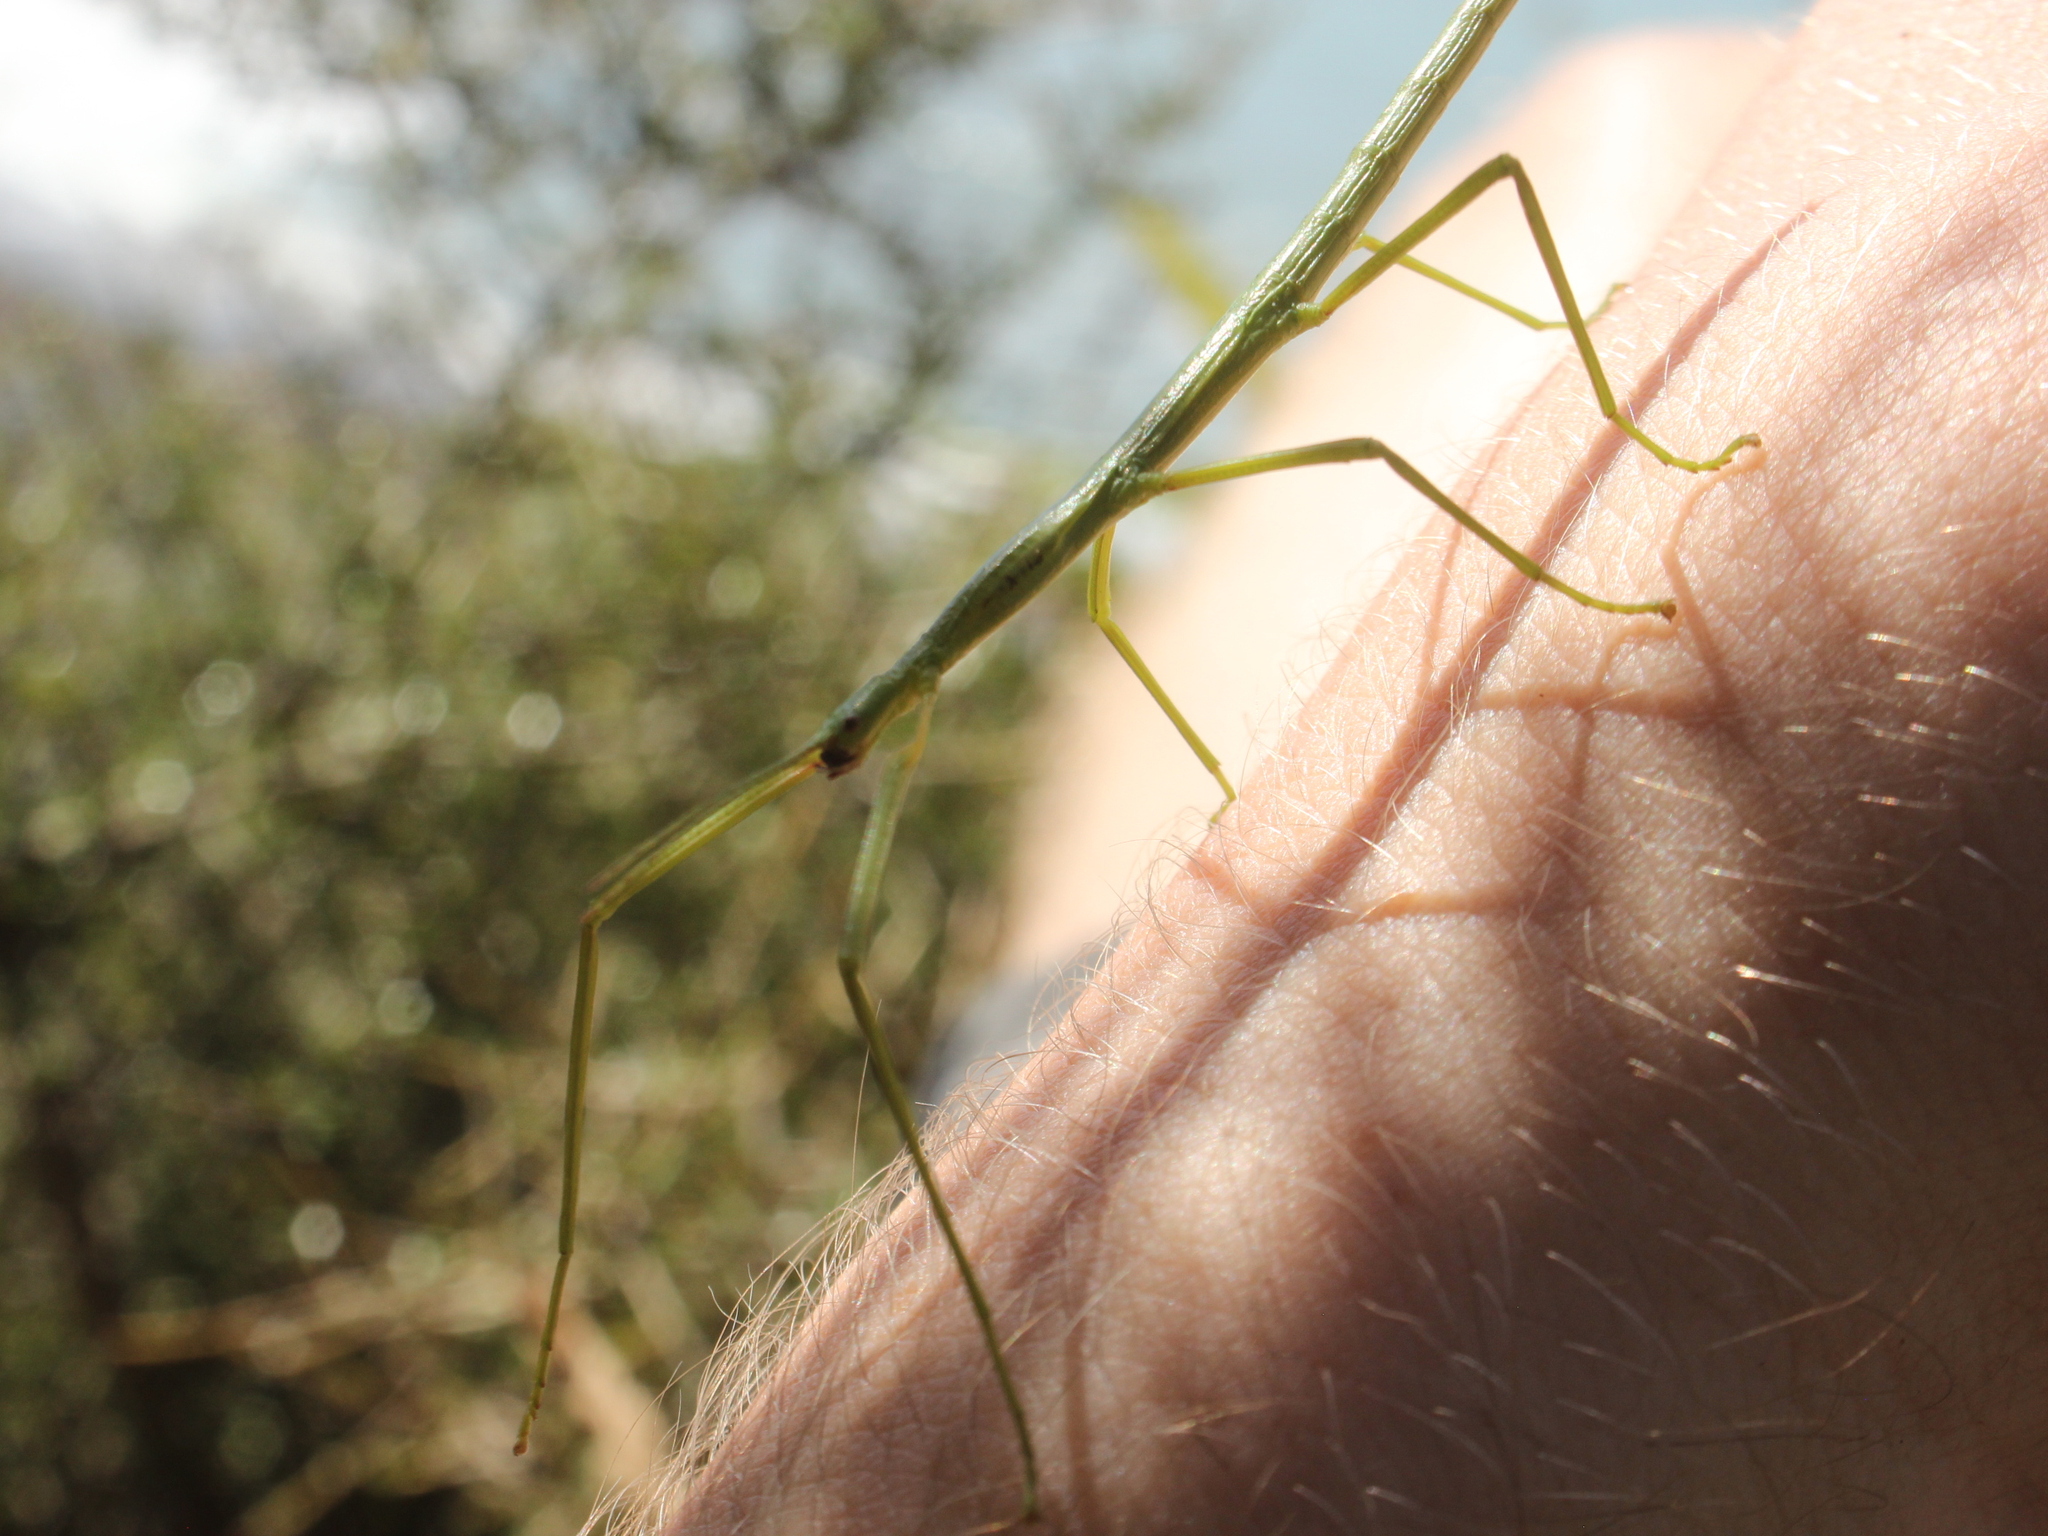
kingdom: Animalia
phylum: Arthropoda
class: Insecta
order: Phasmida
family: Phasmatidae
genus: Clitarchus
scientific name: Clitarchus hookeri
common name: Smooth stick insect
